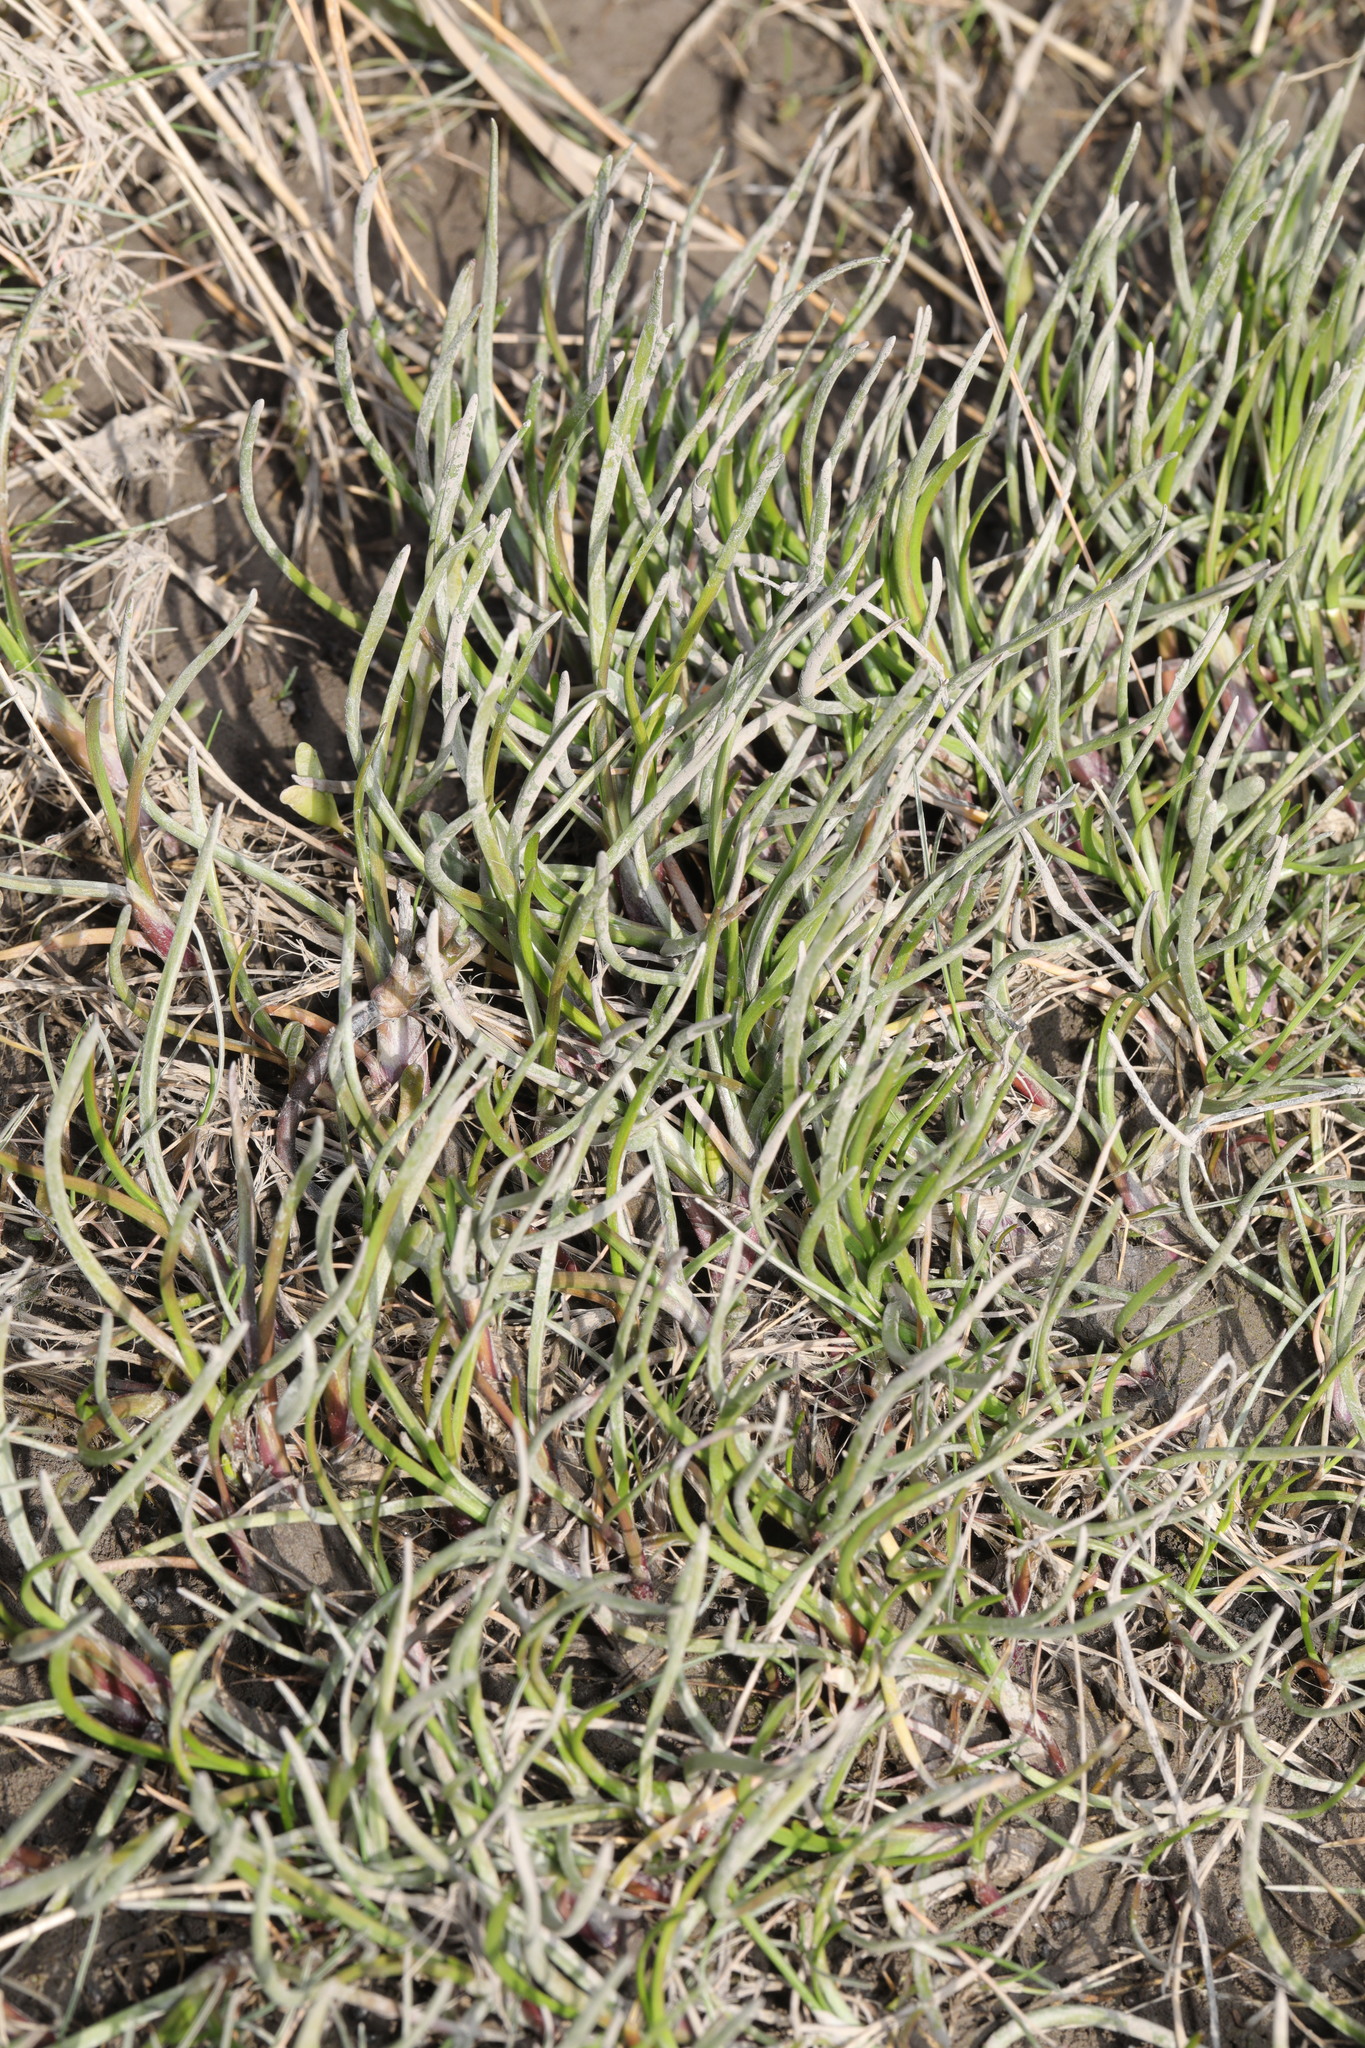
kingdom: Plantae
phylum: Tracheophyta
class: Liliopsida
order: Alismatales
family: Juncaginaceae
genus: Triglochin
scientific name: Triglochin maritima
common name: Sea arrowgrass
